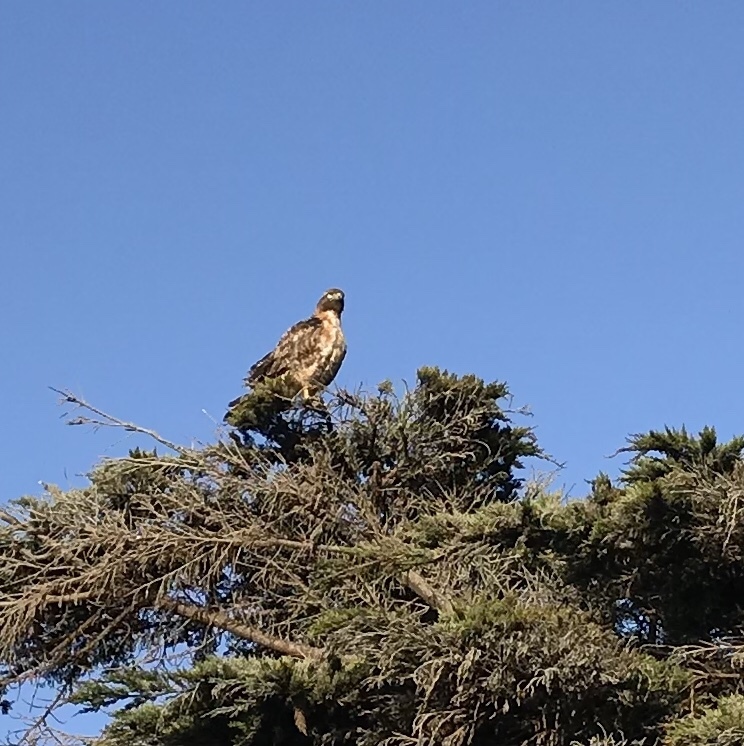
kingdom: Animalia
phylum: Chordata
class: Aves
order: Accipitriformes
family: Accipitridae
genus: Buteo
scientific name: Buteo jamaicensis
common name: Red-tailed hawk
